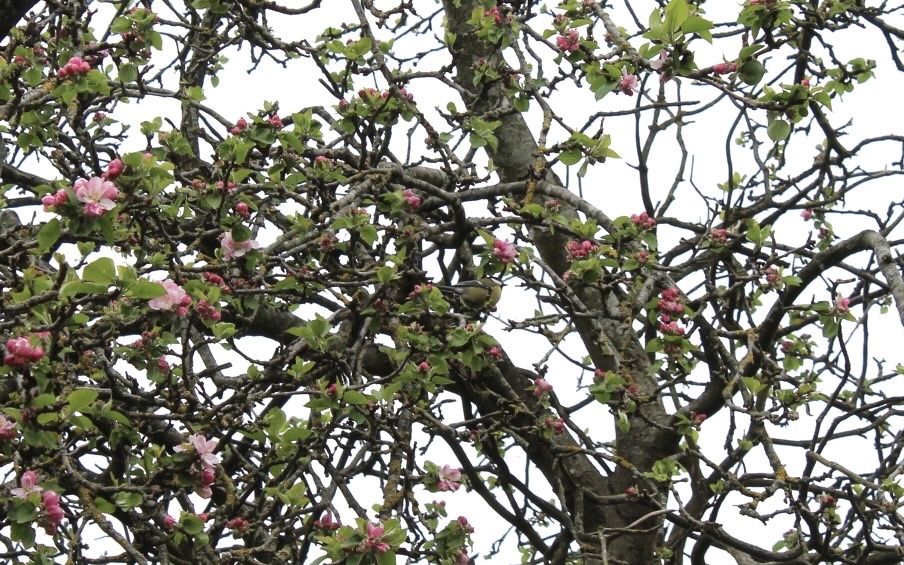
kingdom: Animalia
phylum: Chordata
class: Aves
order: Passeriformes
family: Paridae
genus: Parus
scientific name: Parus major
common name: Great tit
